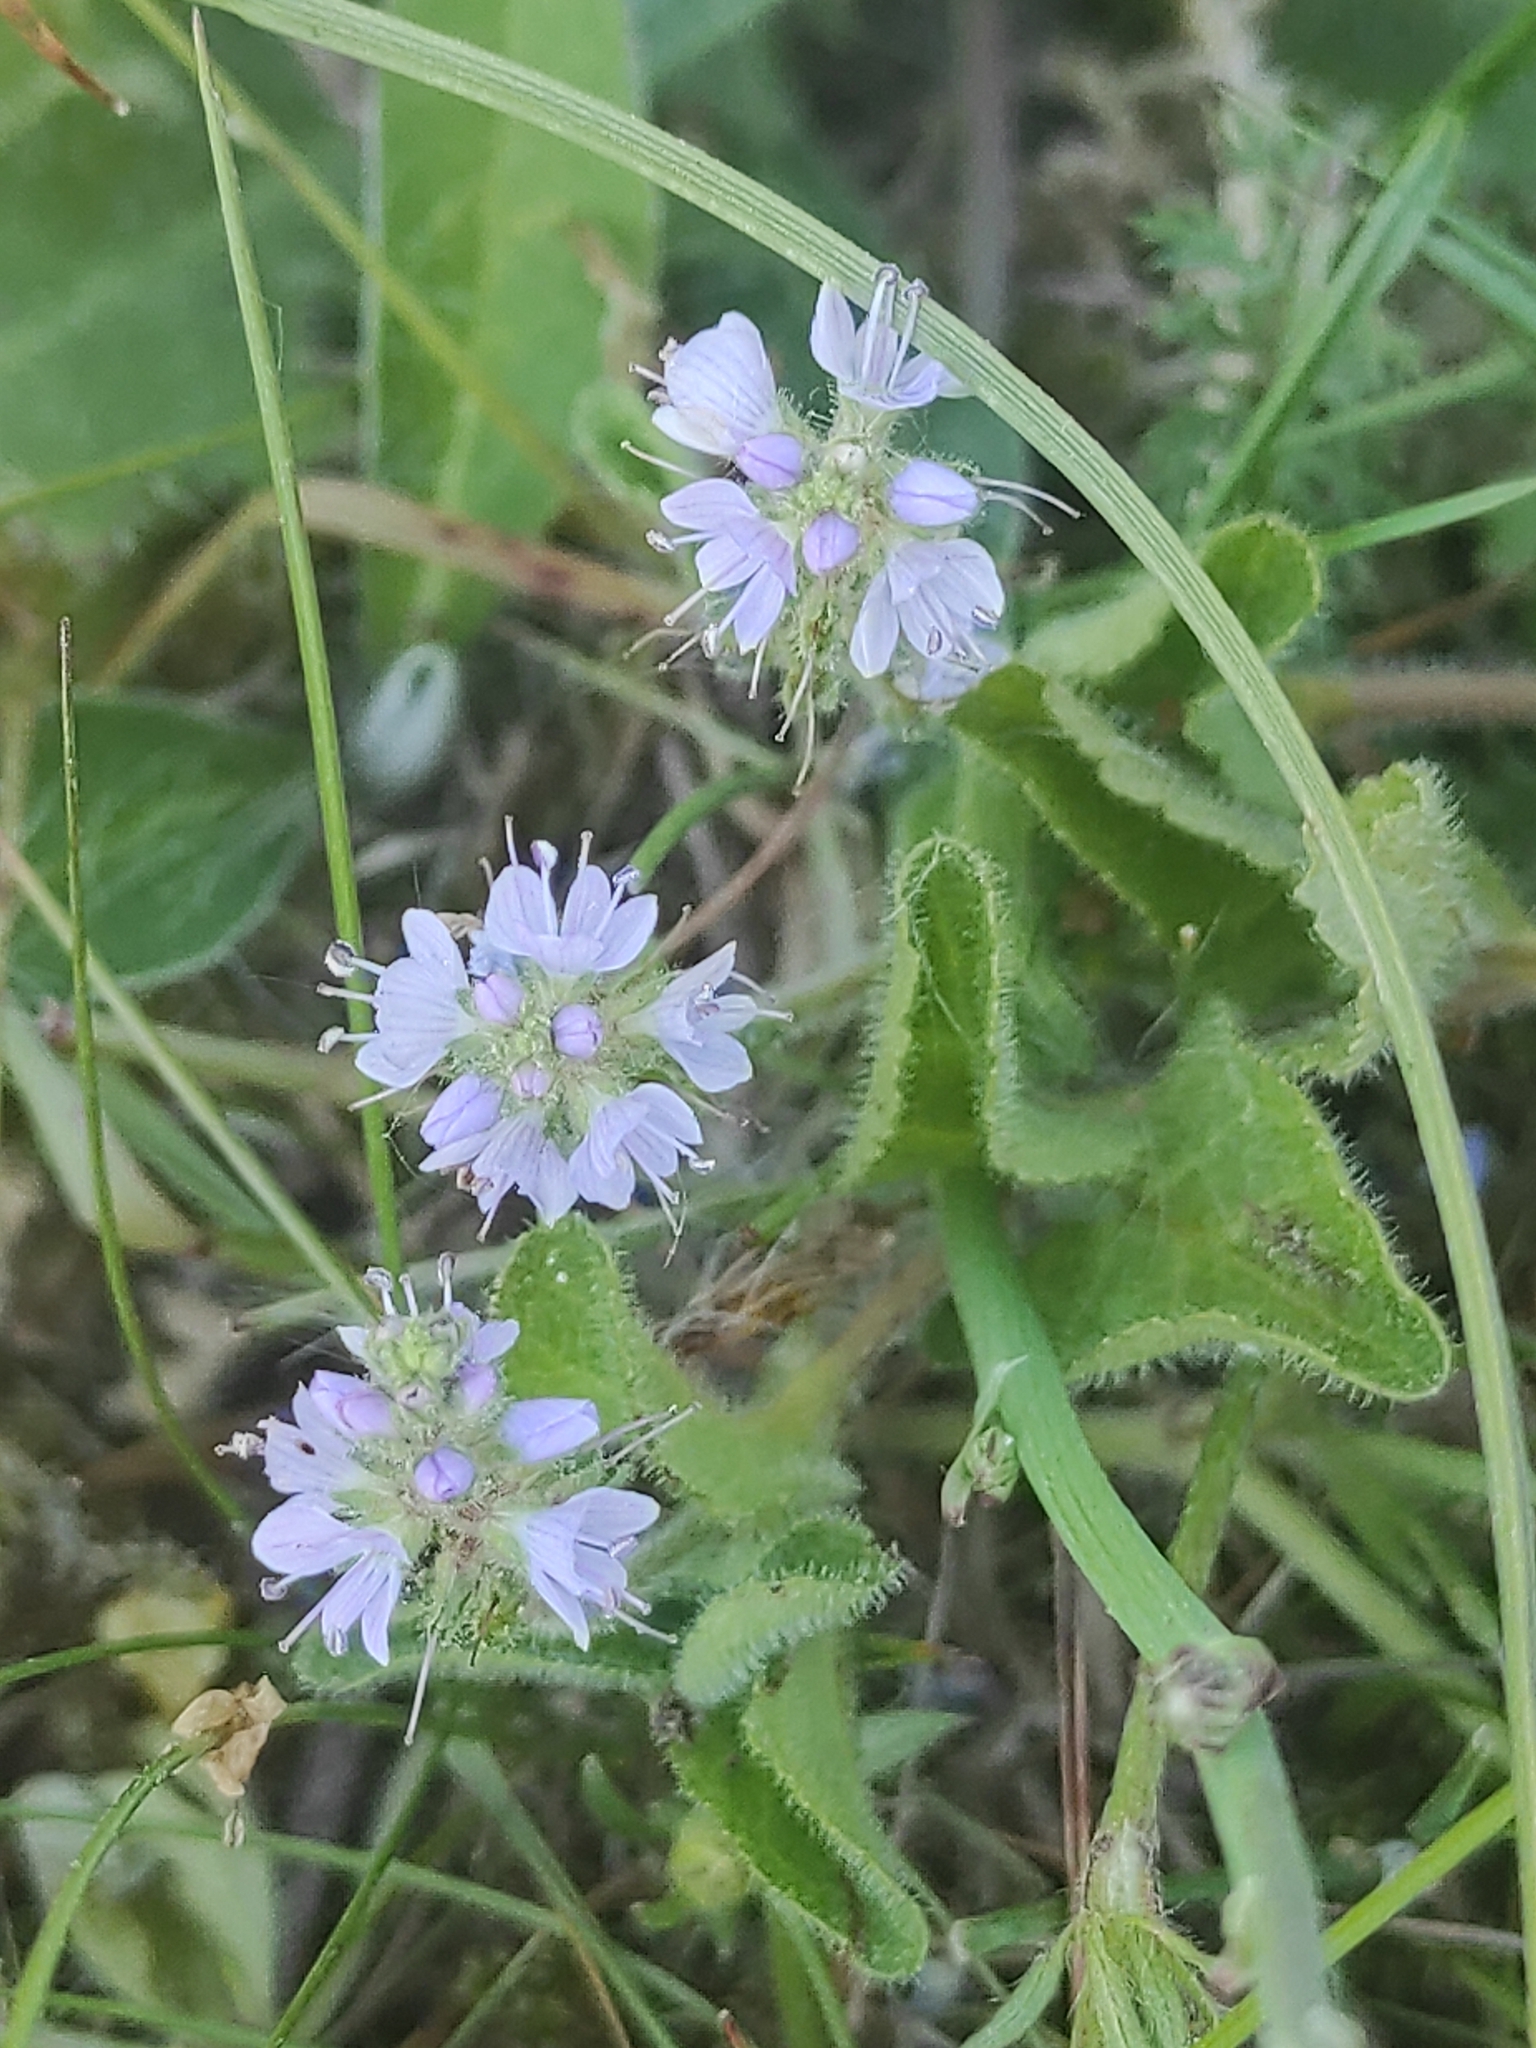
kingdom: Plantae
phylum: Tracheophyta
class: Magnoliopsida
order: Lamiales
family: Plantaginaceae
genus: Veronica
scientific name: Veronica officinalis
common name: Common speedwell
